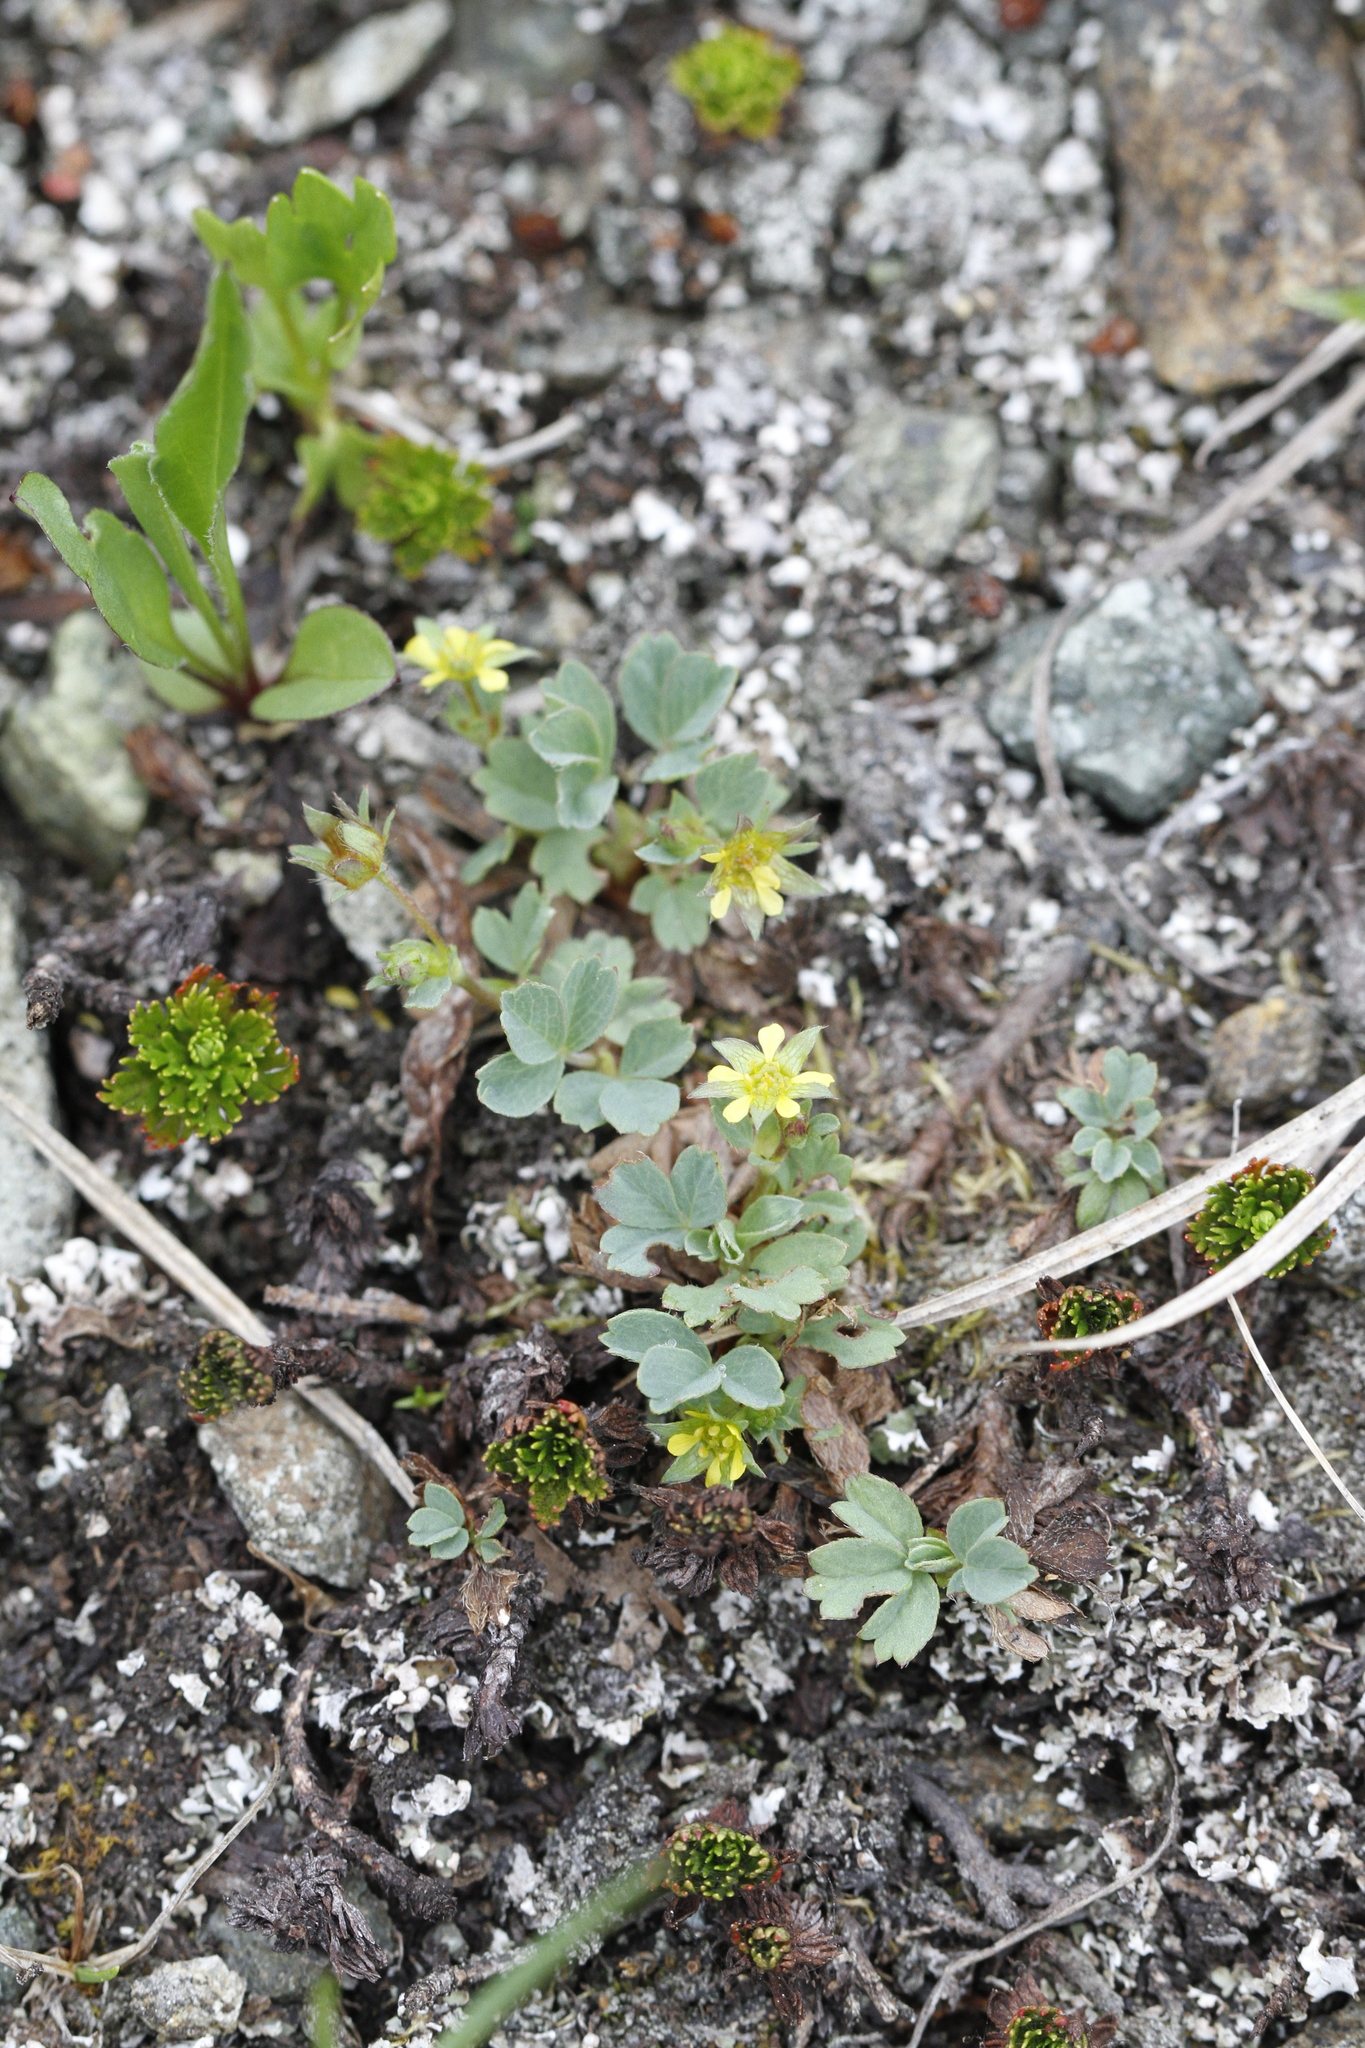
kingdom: Plantae
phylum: Tracheophyta
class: Magnoliopsida
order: Rosales
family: Rosaceae
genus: Sibbaldia
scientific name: Sibbaldia procumbens
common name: Creeping sibbaldia
